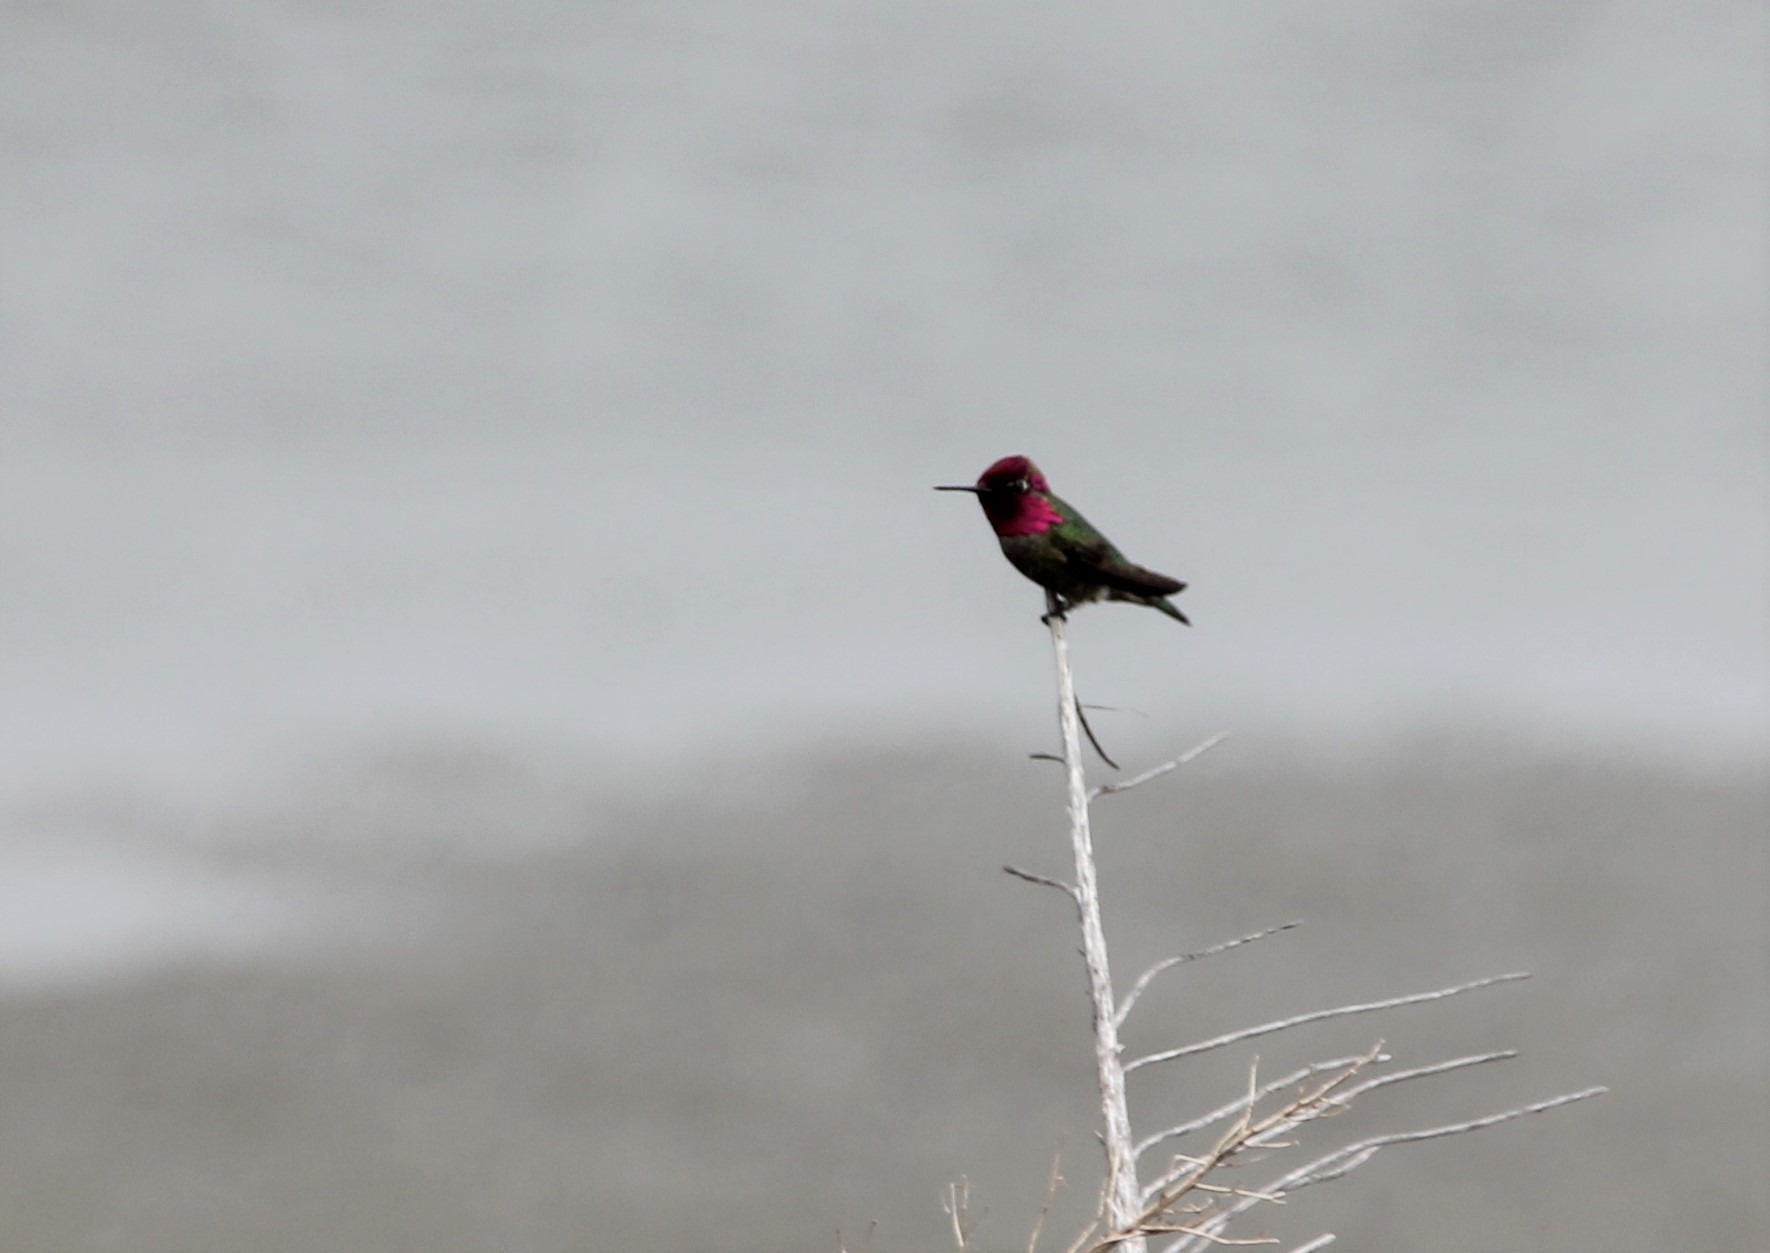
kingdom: Animalia
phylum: Chordata
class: Aves
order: Apodiformes
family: Trochilidae
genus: Calypte
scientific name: Calypte anna
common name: Anna's hummingbird
